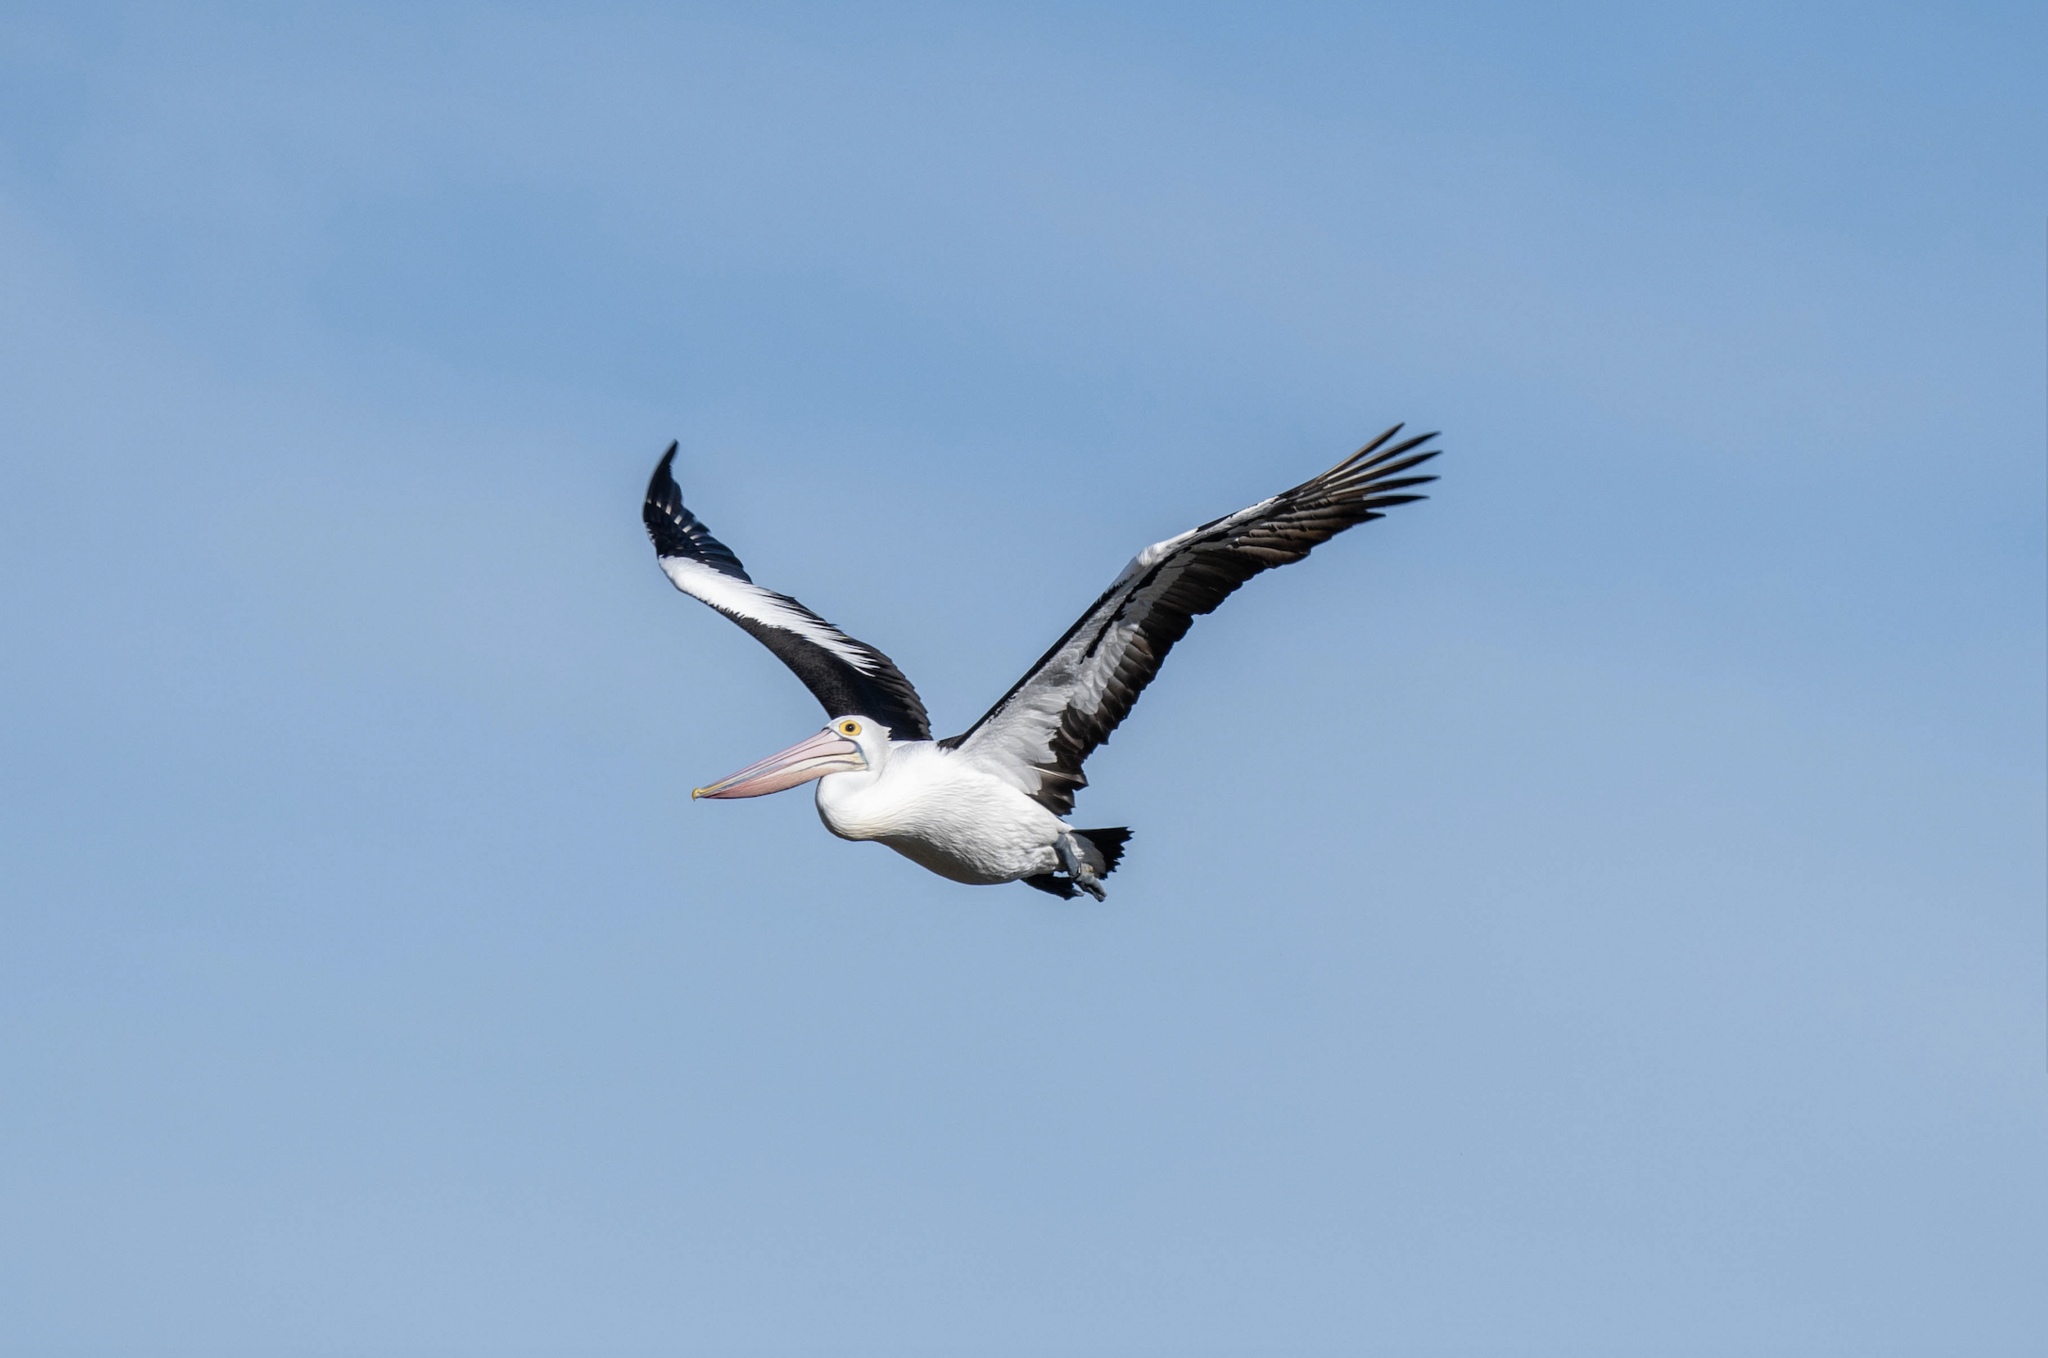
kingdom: Animalia
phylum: Chordata
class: Aves
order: Pelecaniformes
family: Pelecanidae
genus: Pelecanus
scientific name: Pelecanus conspicillatus
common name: Australian pelican
